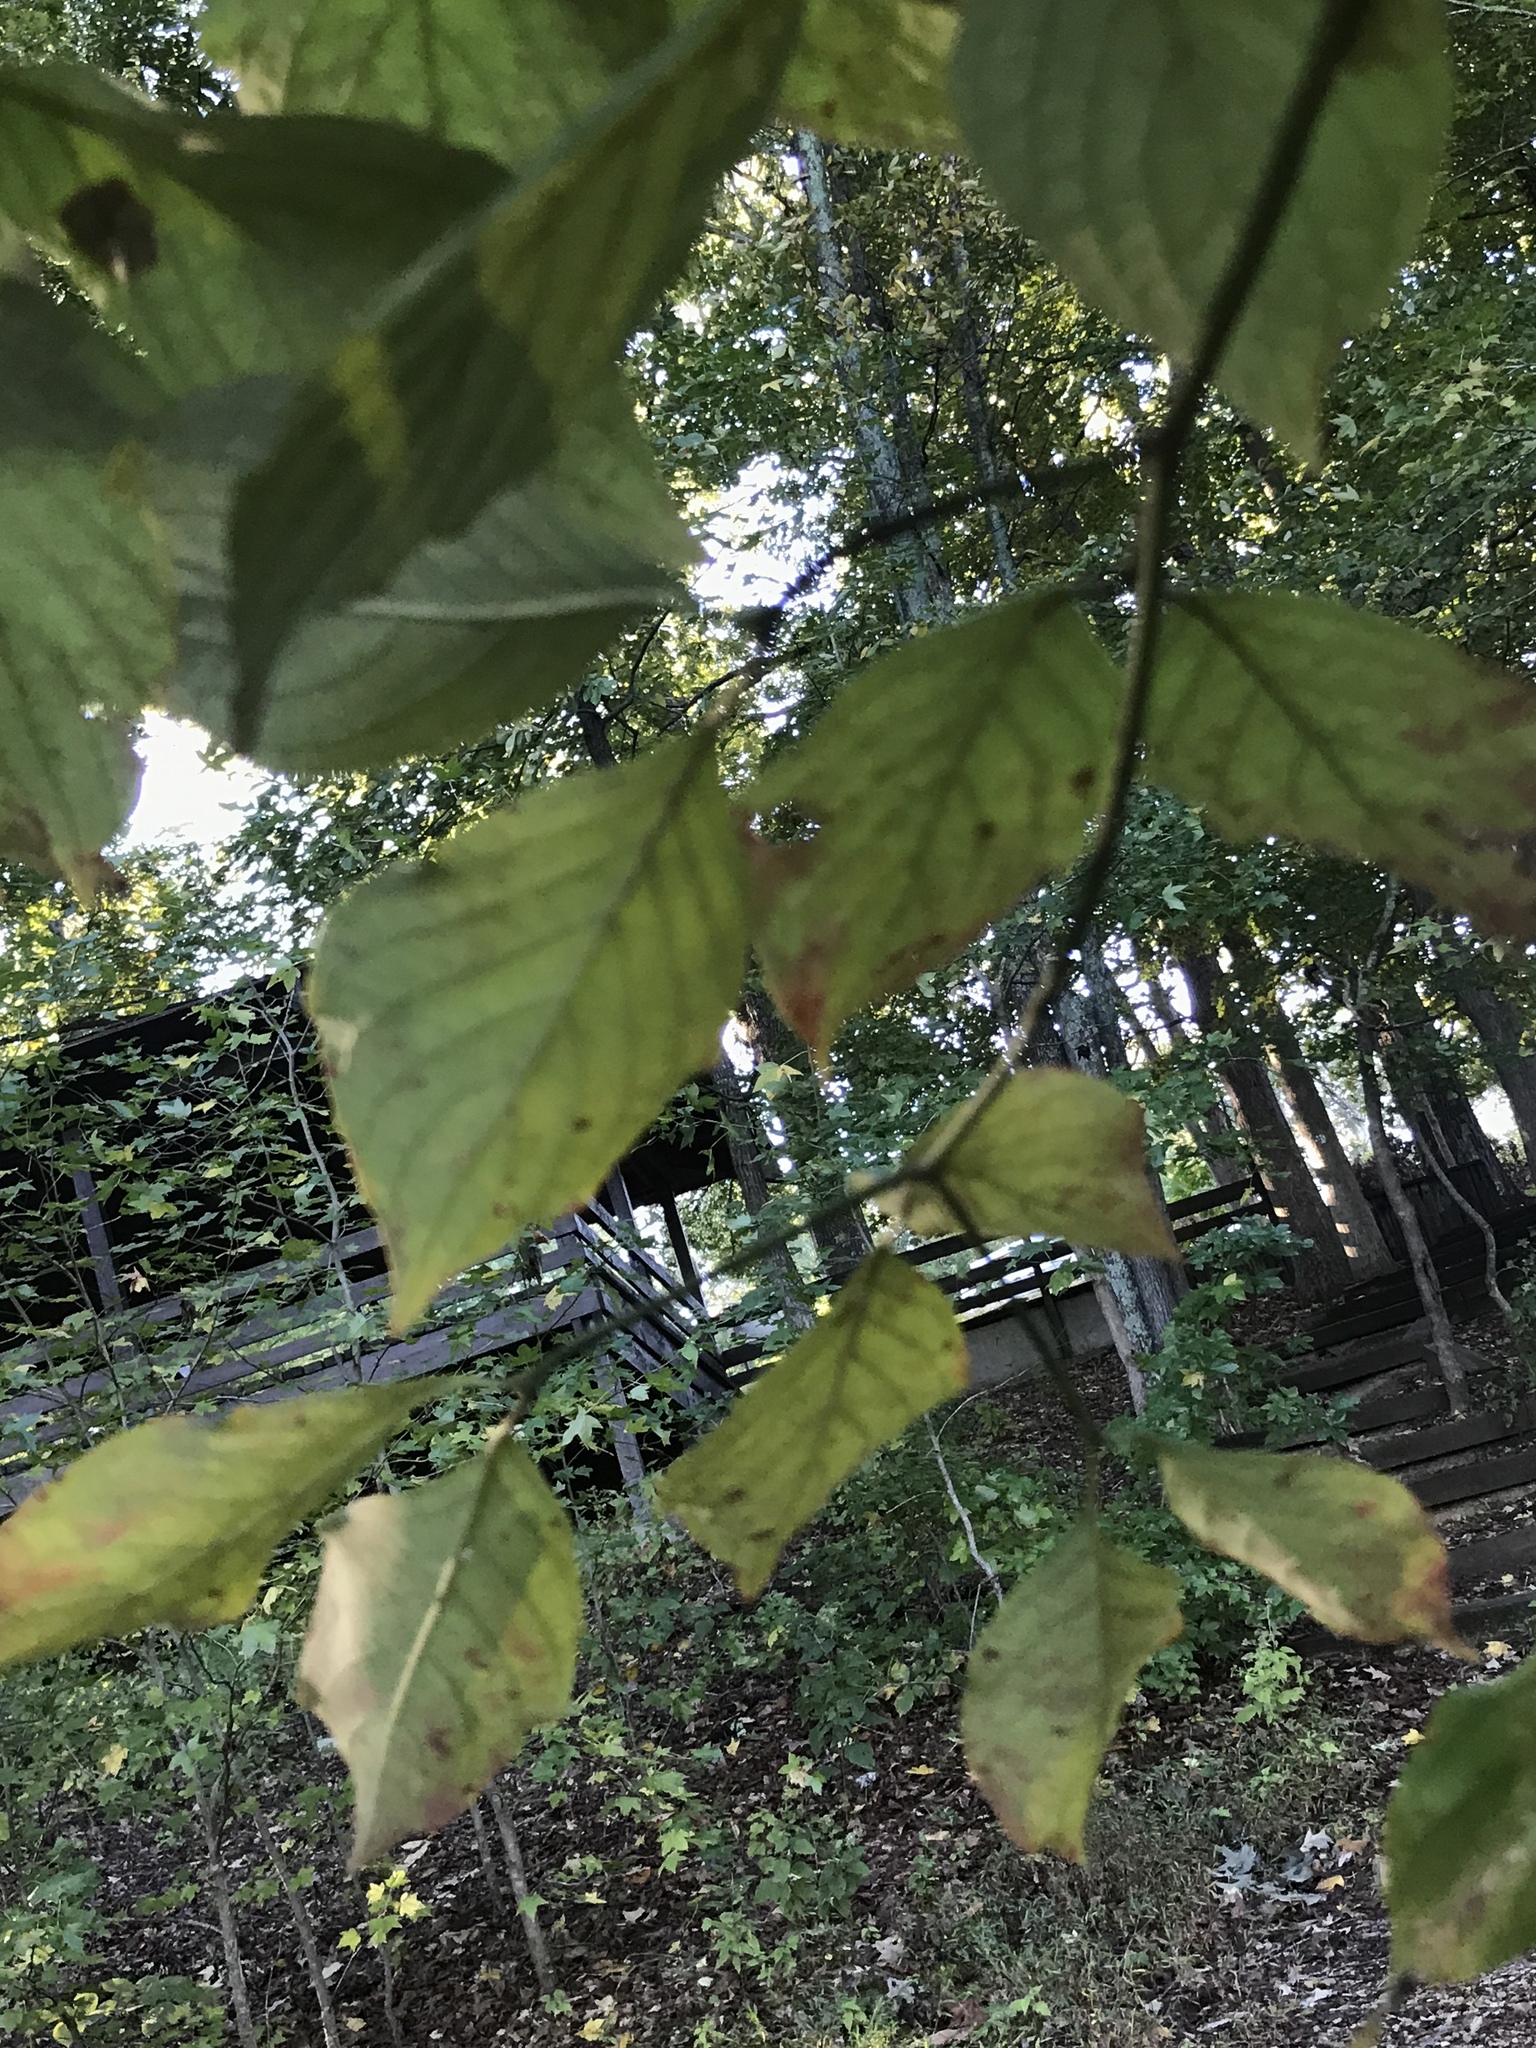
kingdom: Plantae
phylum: Tracheophyta
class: Magnoliopsida
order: Cornales
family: Cornaceae
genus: Cornus
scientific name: Cornus florida
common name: Flowering dogwood
